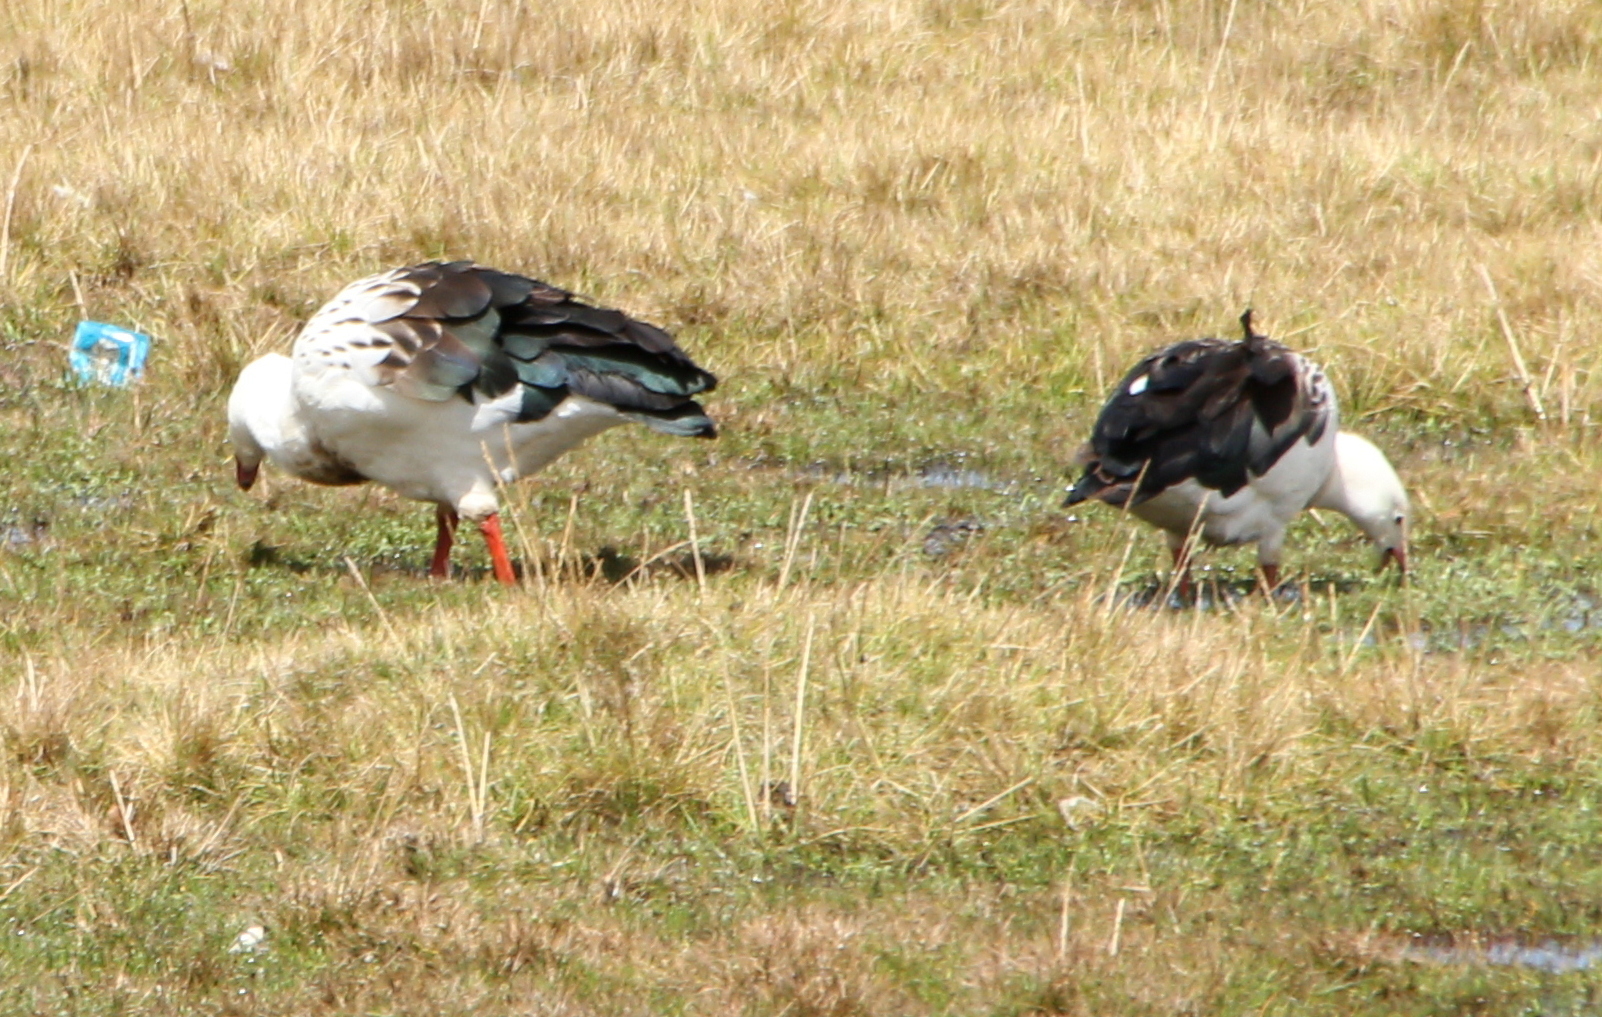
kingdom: Animalia
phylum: Chordata
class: Aves
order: Anseriformes
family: Anatidae
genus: Chloephaga
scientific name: Chloephaga melanoptera
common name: Andean goose
